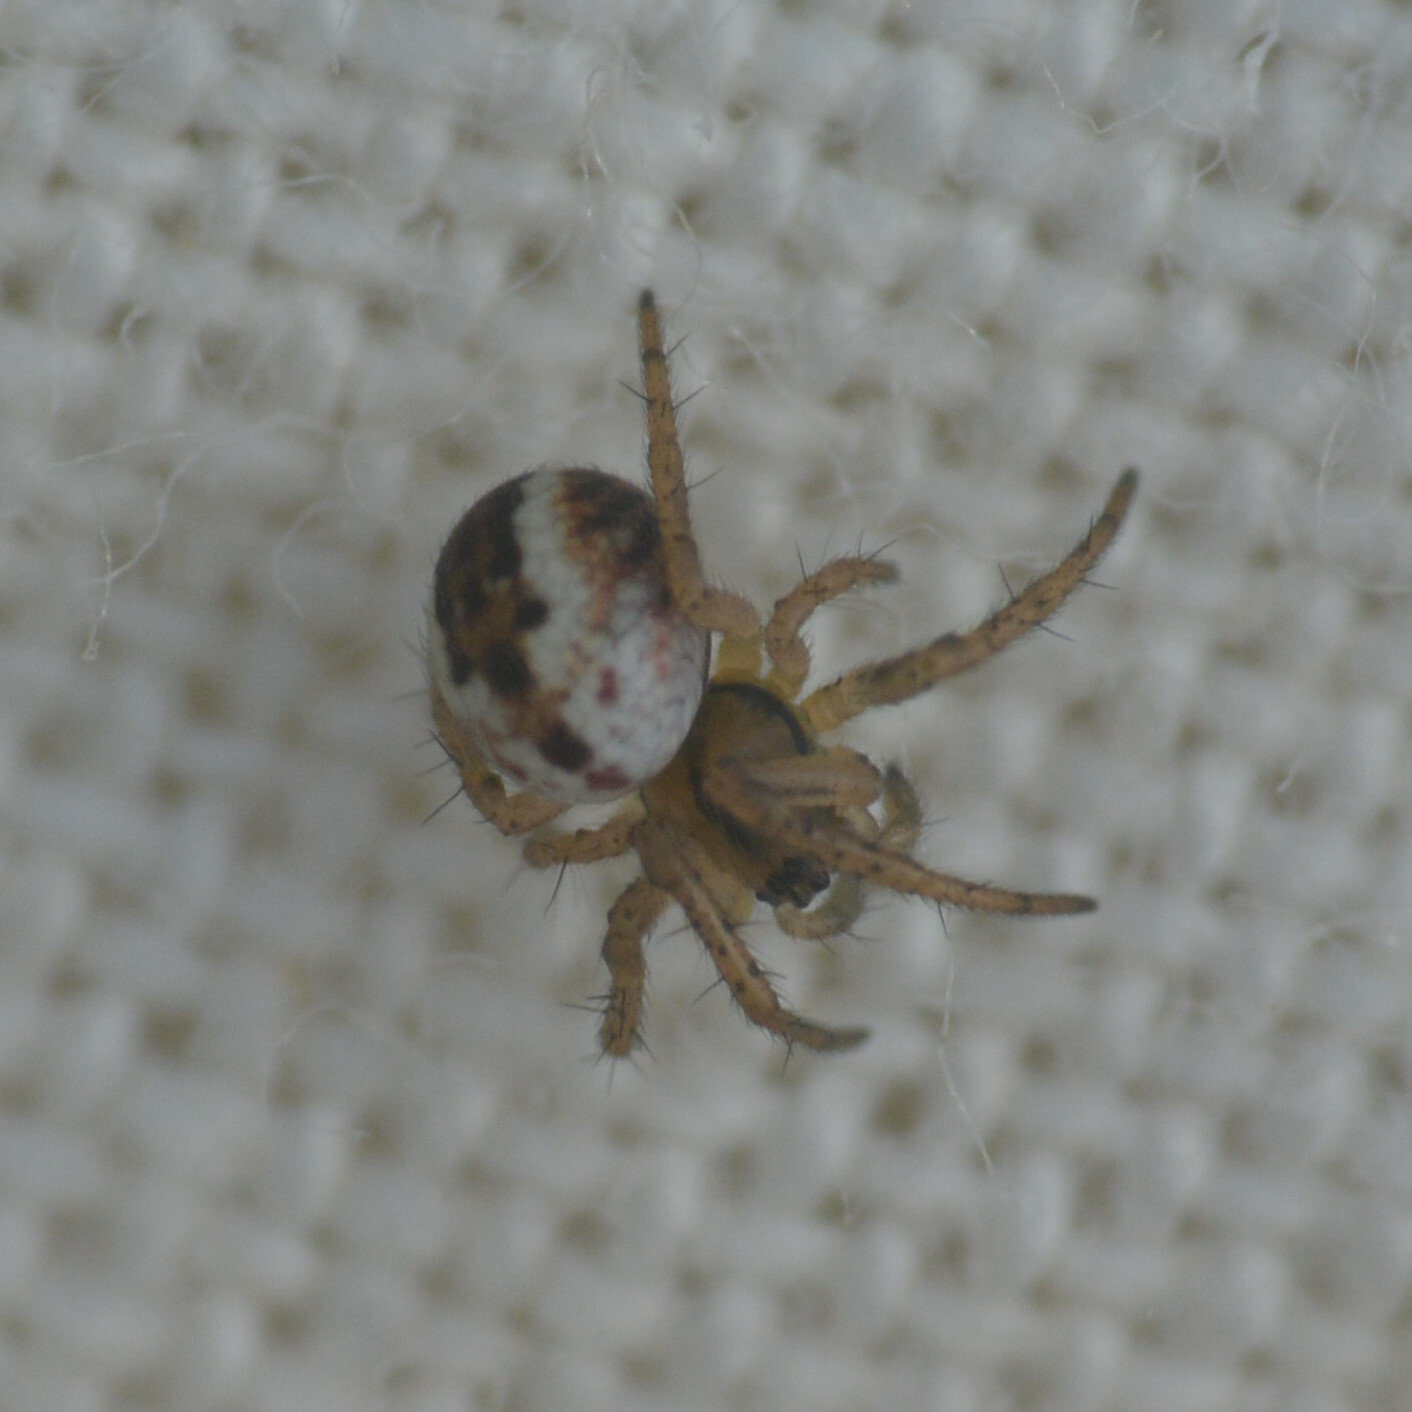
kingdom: Animalia
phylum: Arthropoda
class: Arachnida
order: Araneae
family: Araneidae
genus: Mangora
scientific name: Mangora acalypha
